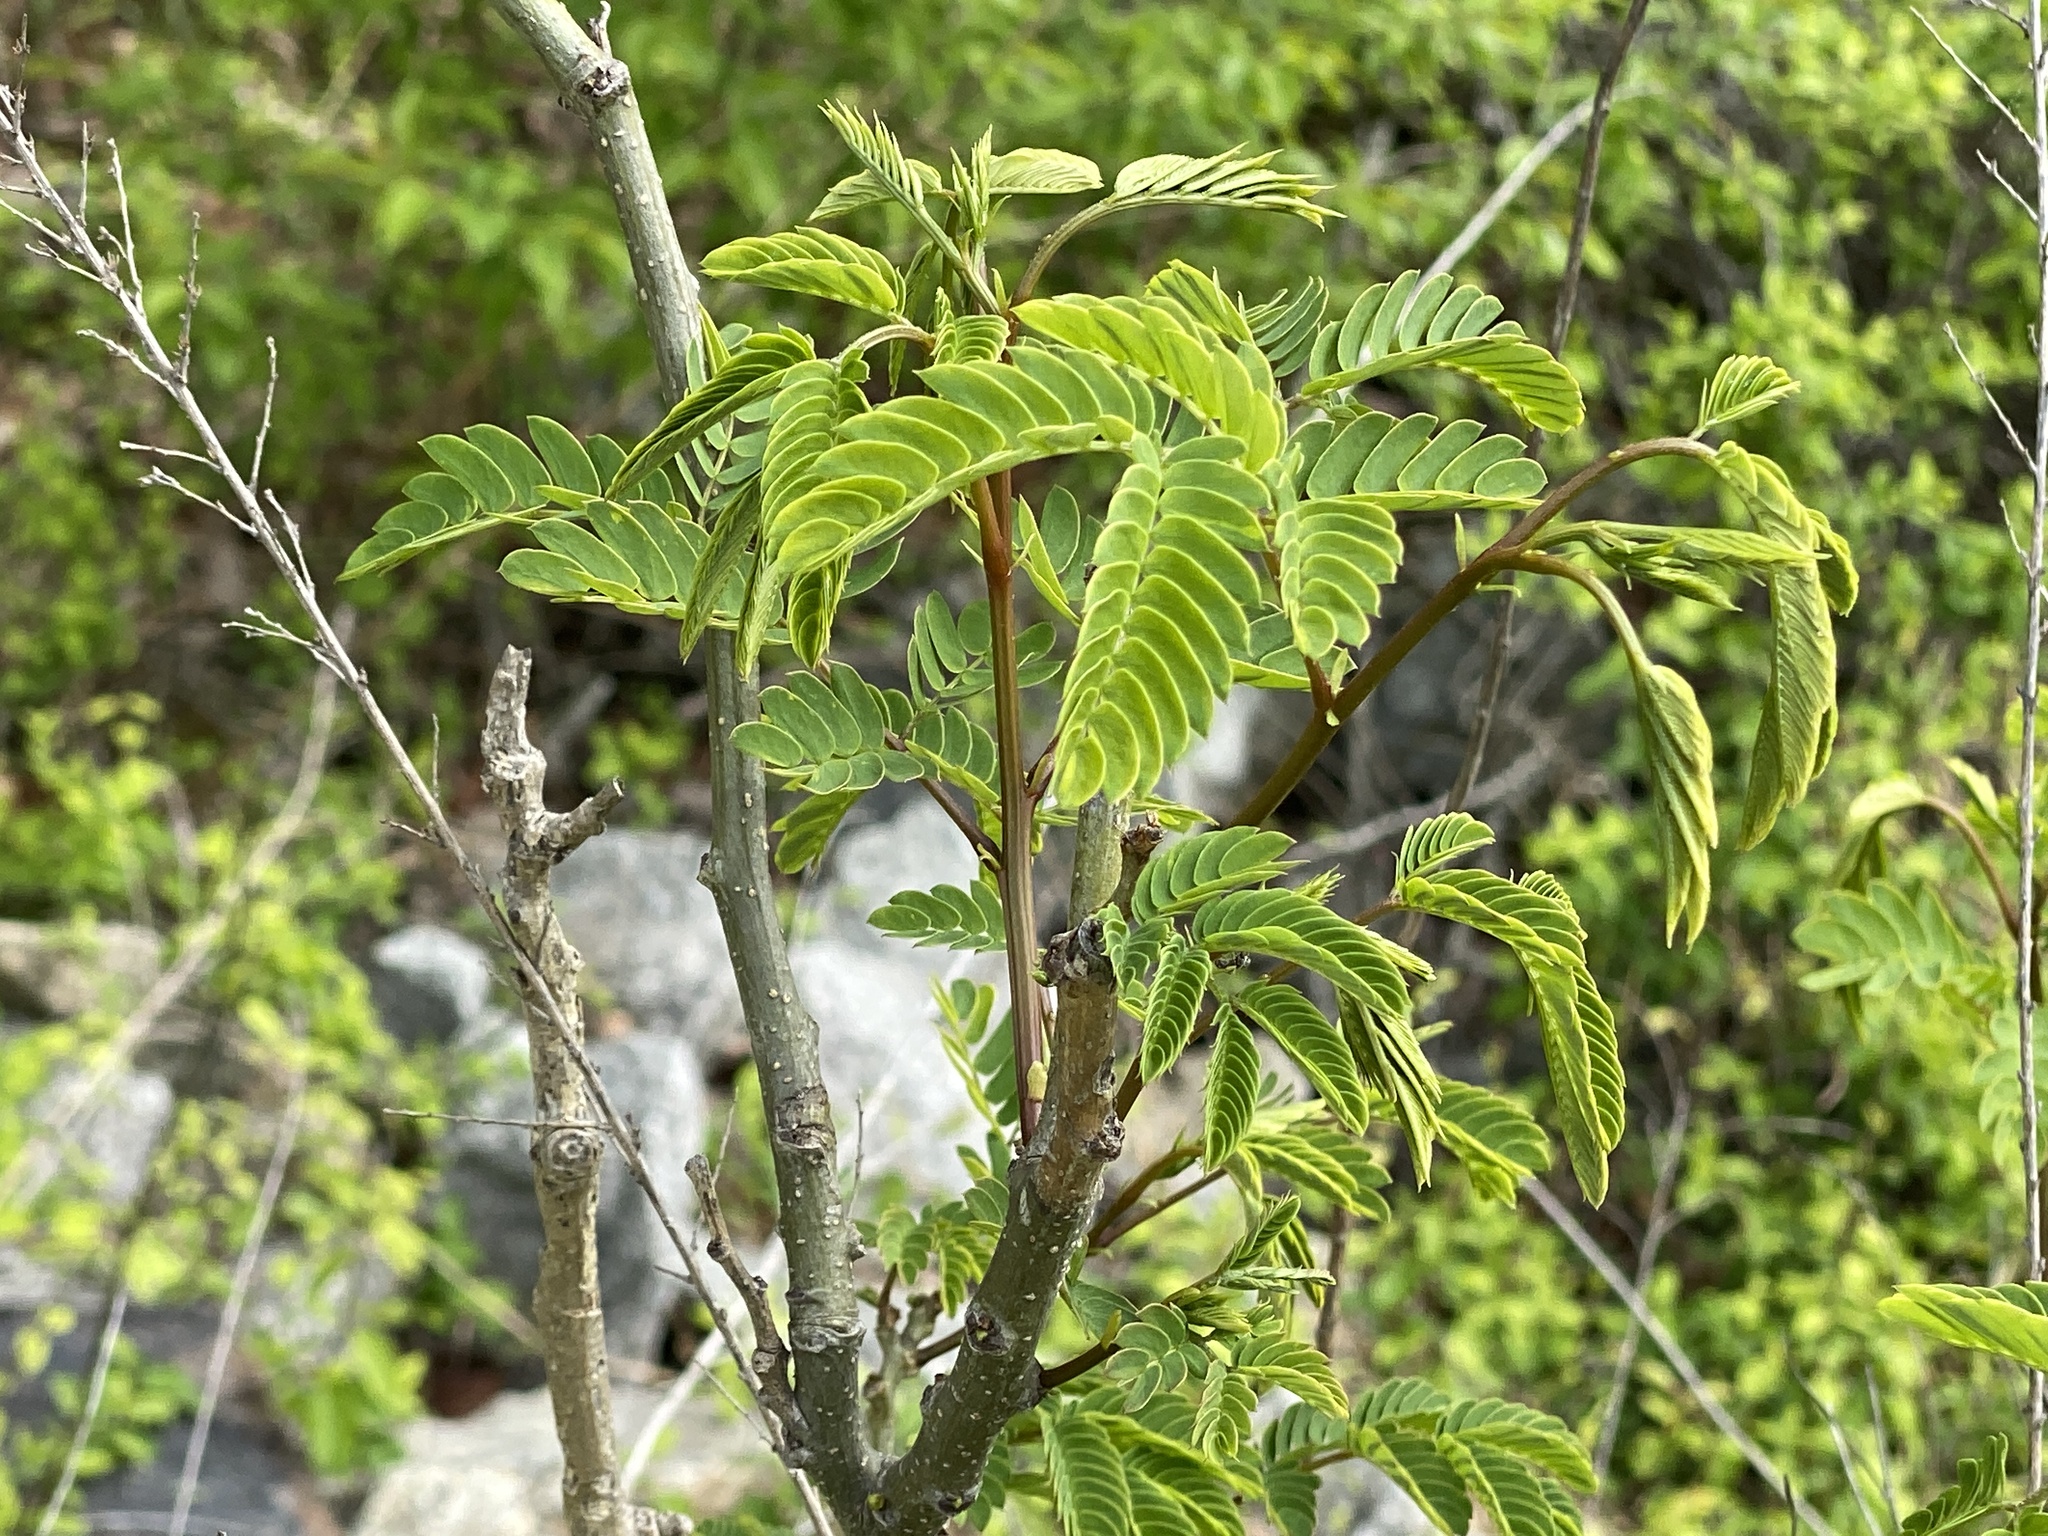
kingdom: Plantae
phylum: Tracheophyta
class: Magnoliopsida
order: Fabales
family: Fabaceae
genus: Albizia
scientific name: Albizia julibrissin
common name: Silktree
